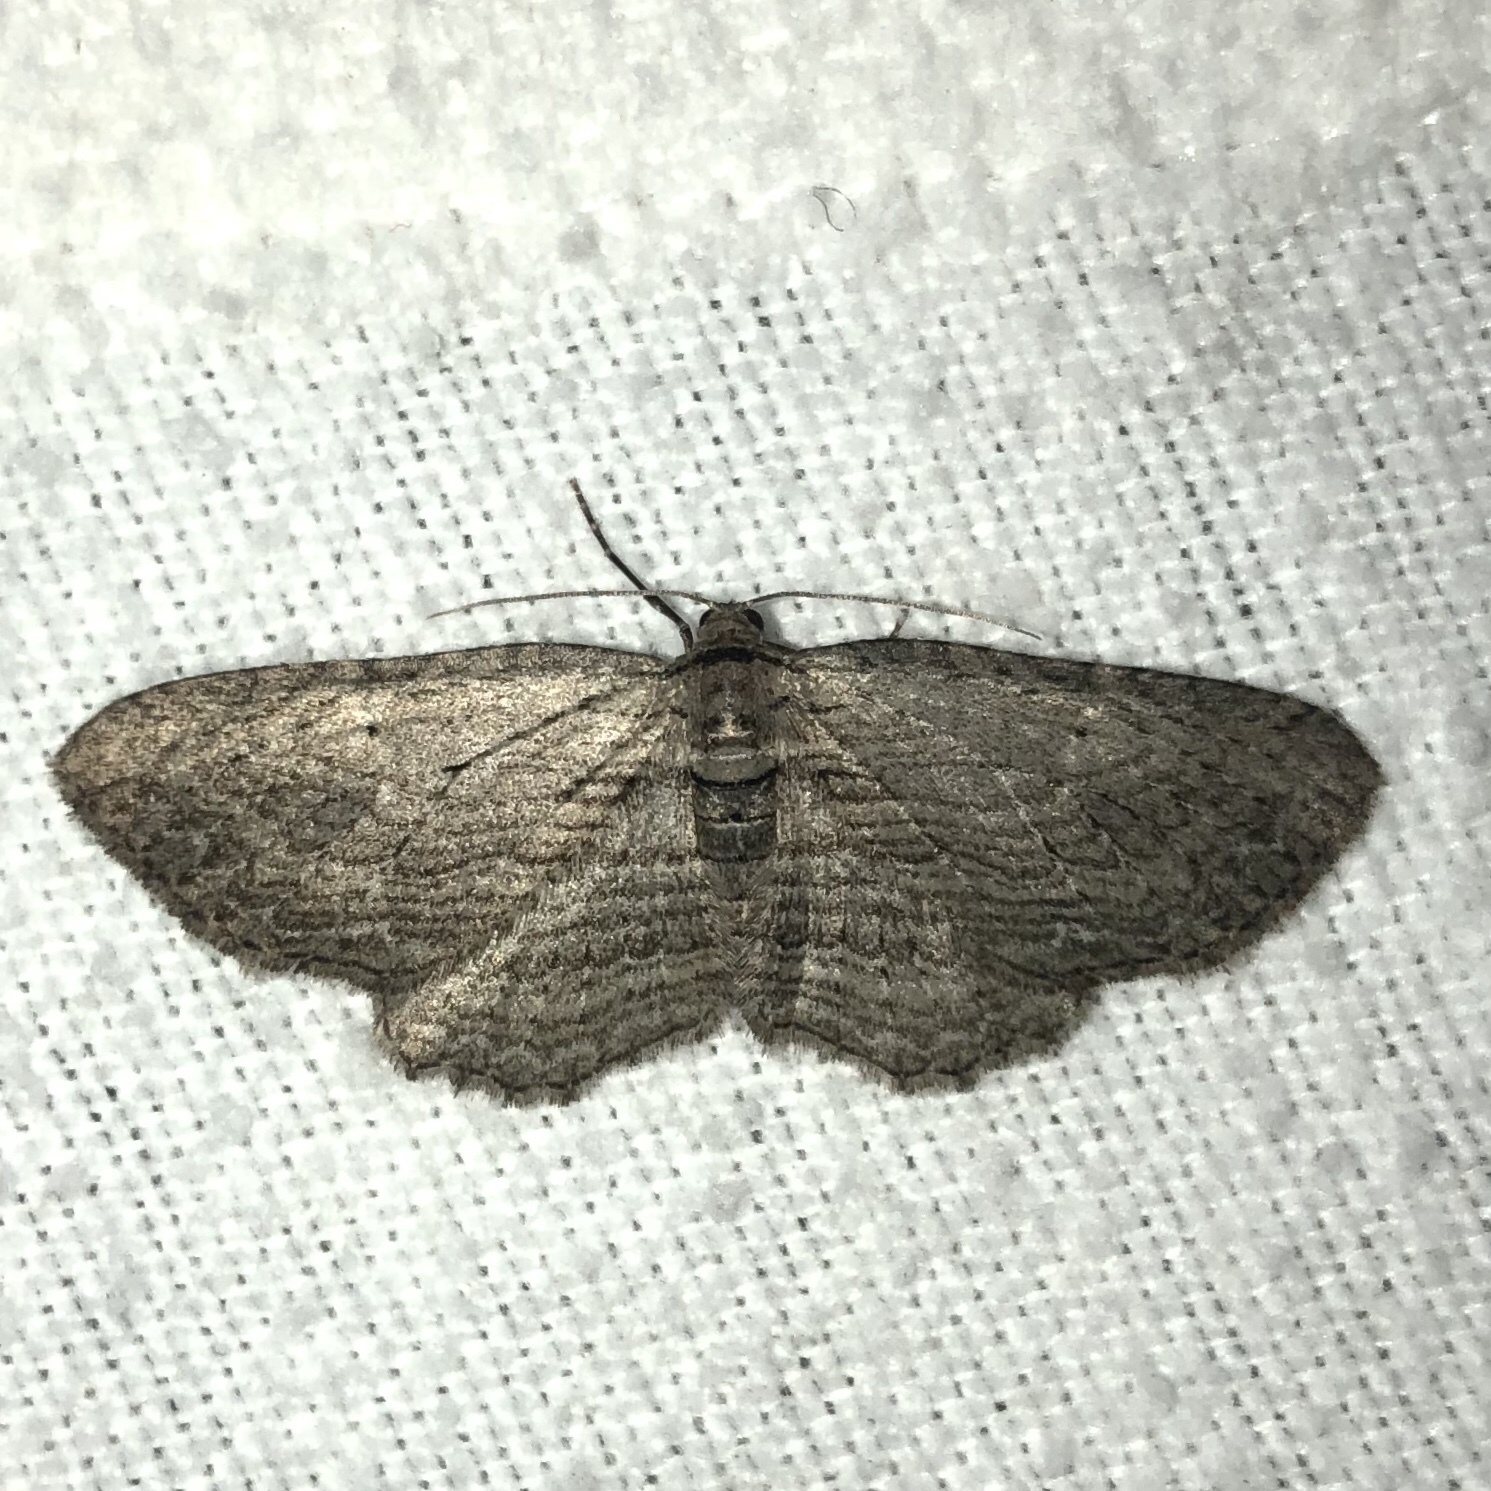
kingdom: Animalia
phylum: Arthropoda
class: Insecta
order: Lepidoptera
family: Geometridae
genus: Horisme
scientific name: Horisme intestinata
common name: Brown bark carpet
